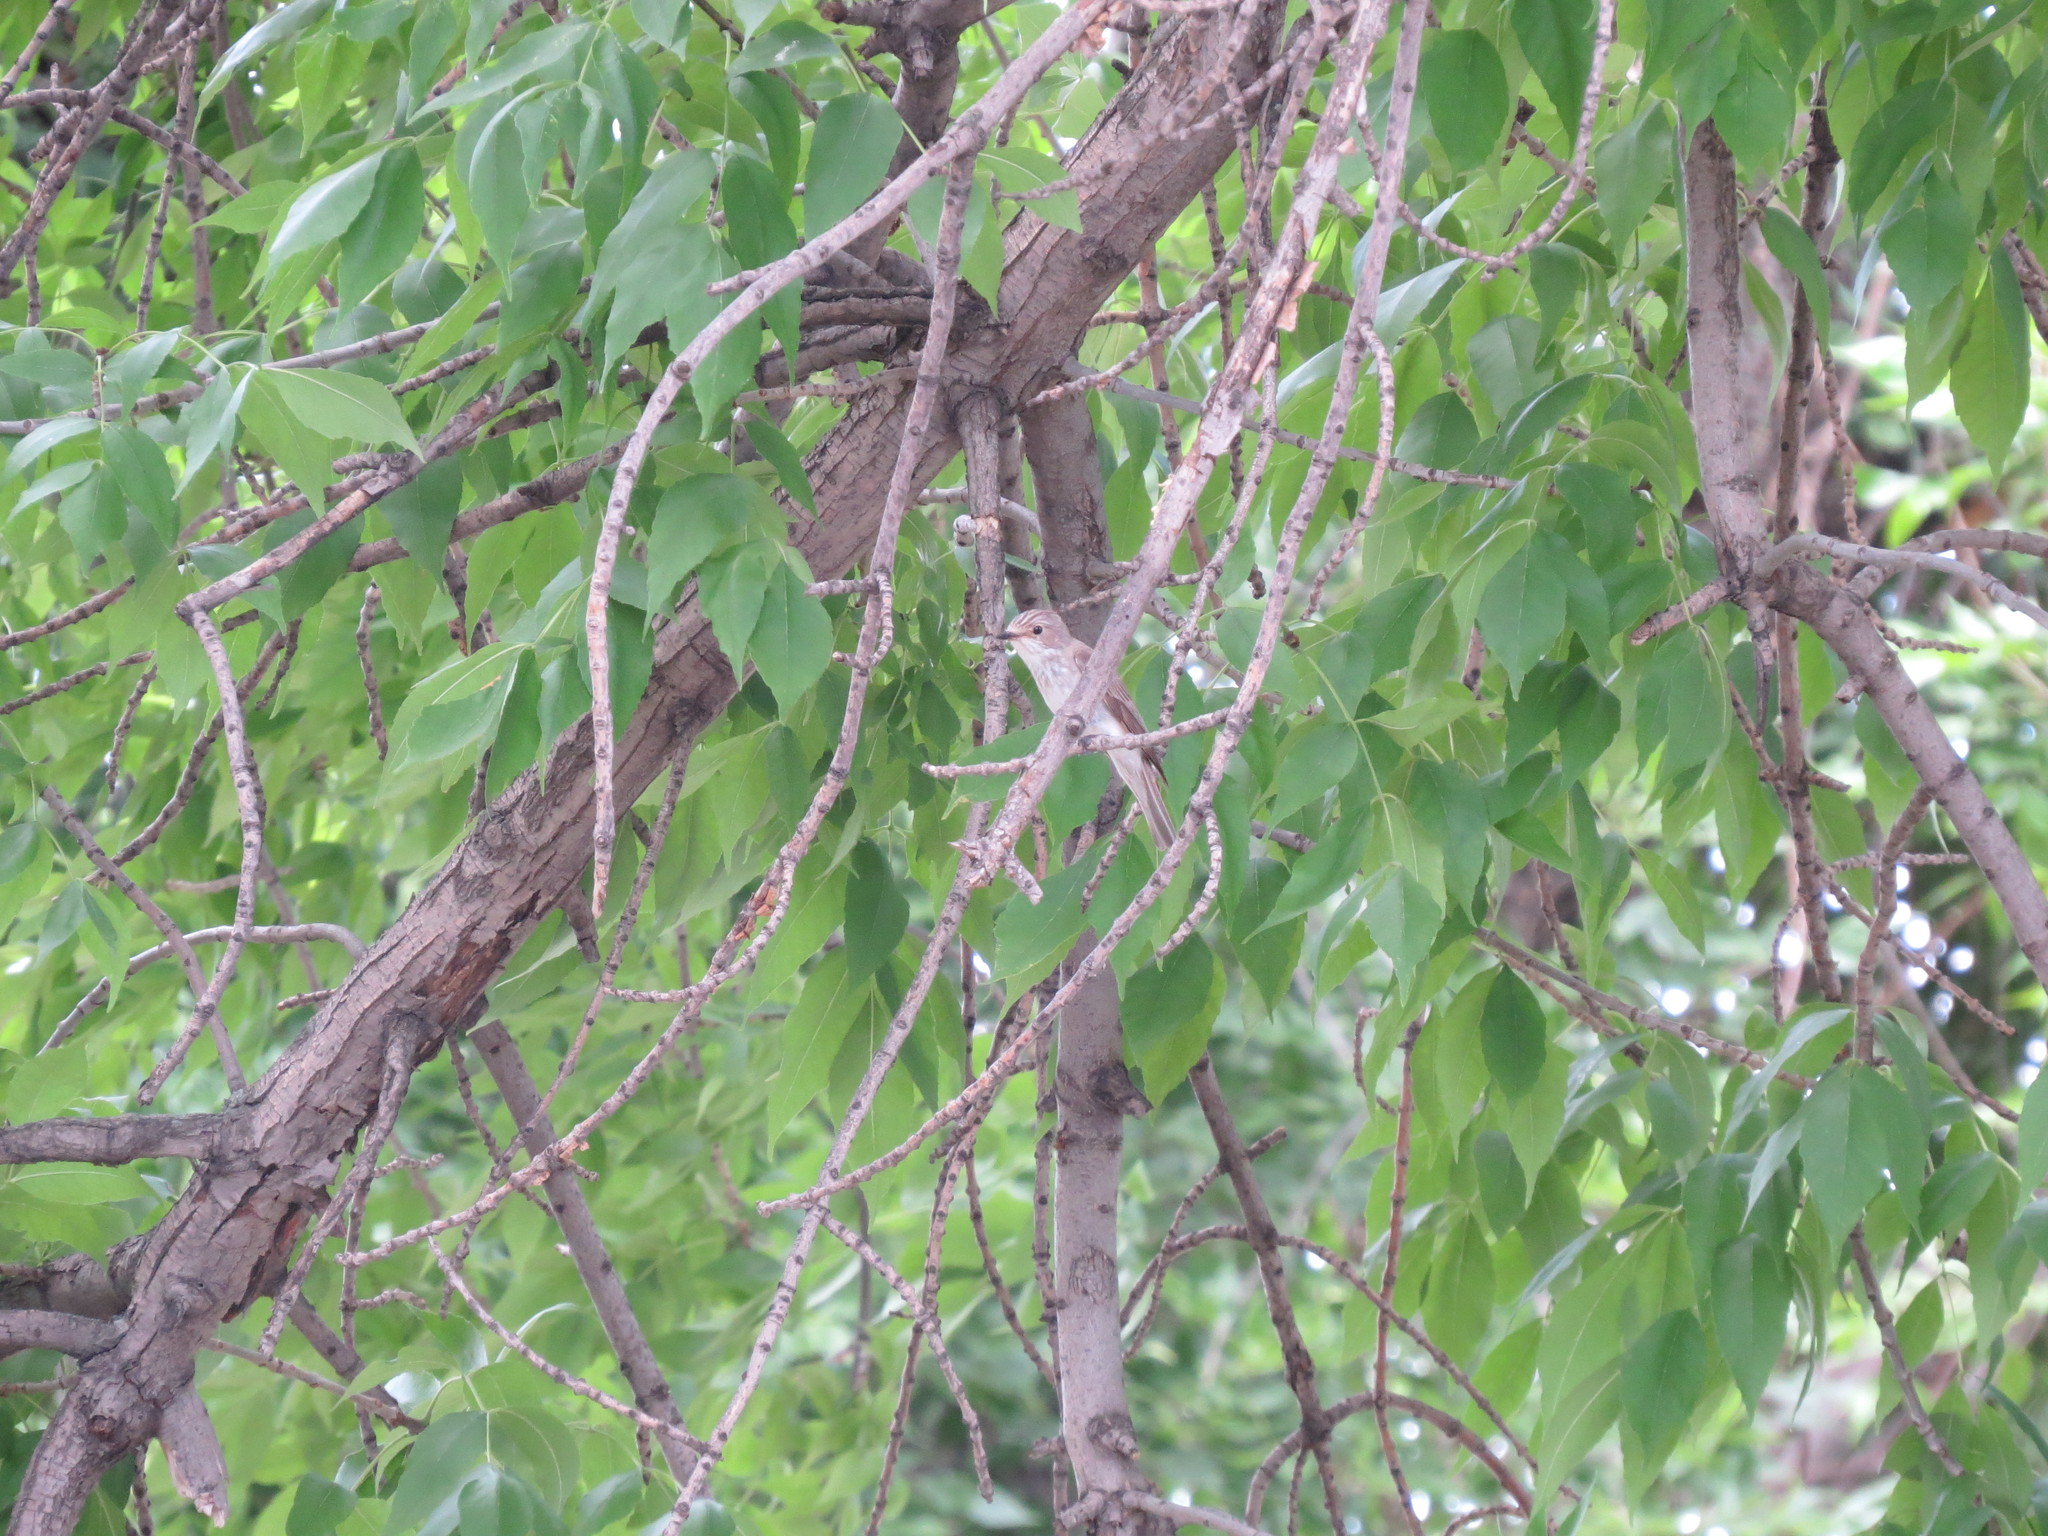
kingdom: Animalia
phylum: Chordata
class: Aves
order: Passeriformes
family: Muscicapidae
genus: Muscicapa
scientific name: Muscicapa striata
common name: Spotted flycatcher
